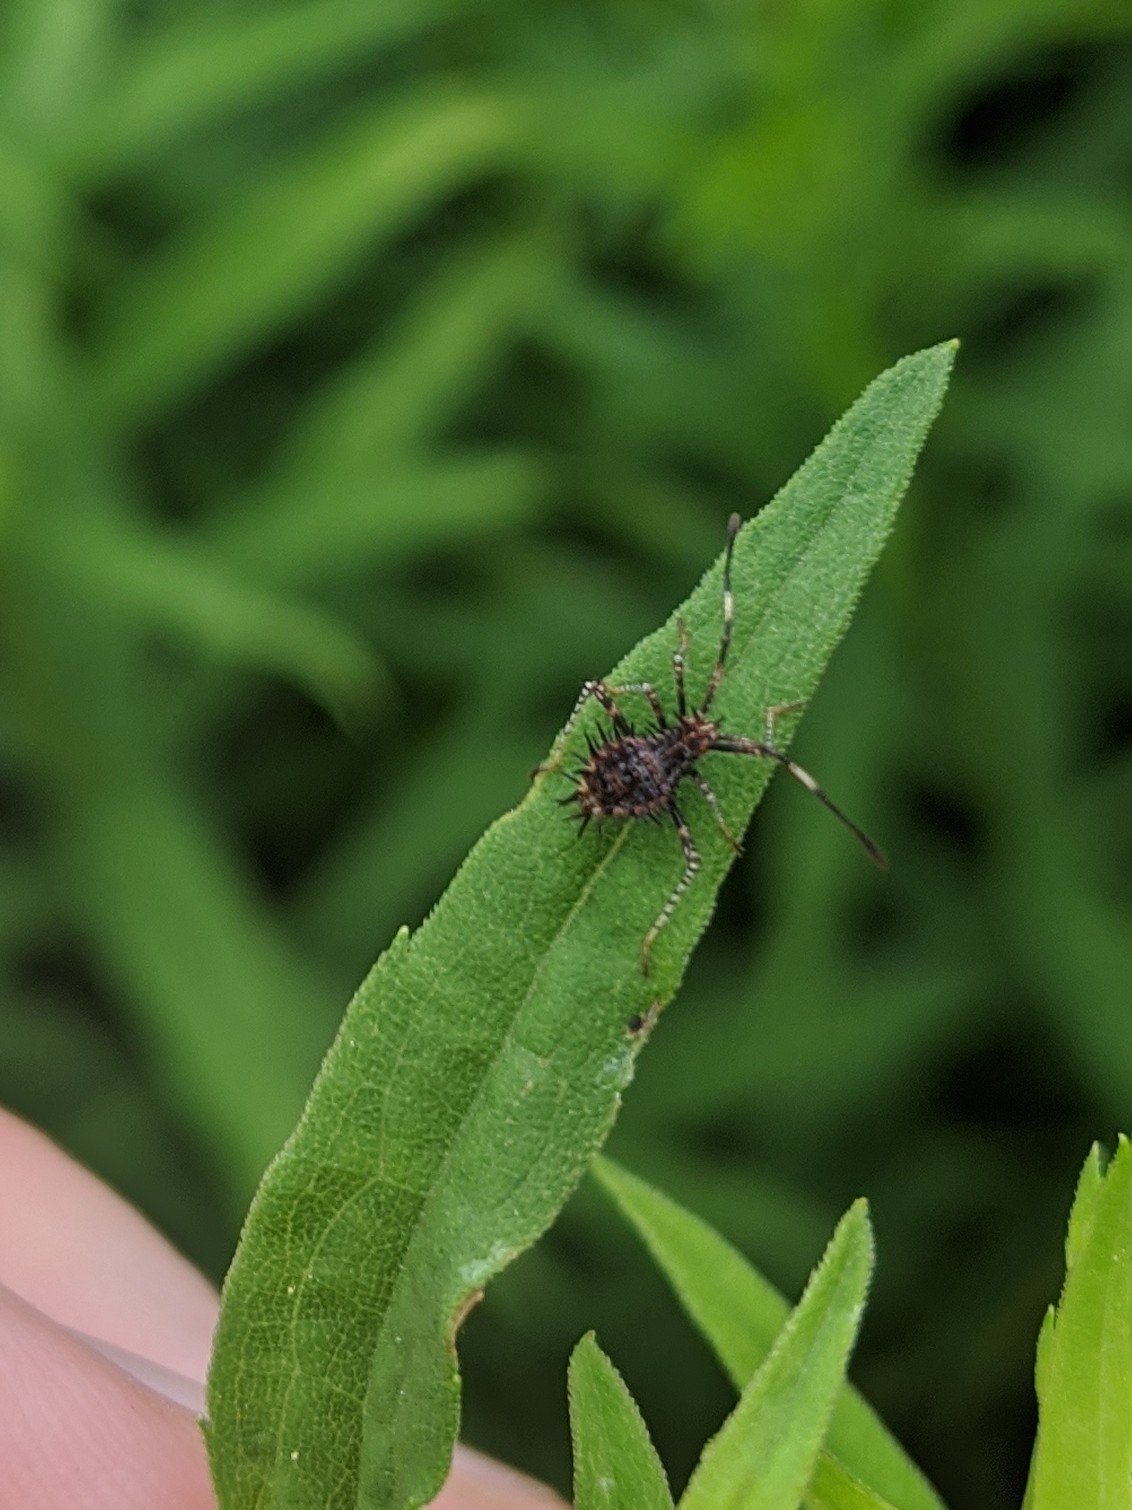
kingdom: Animalia
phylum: Arthropoda
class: Insecta
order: Hemiptera
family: Coreidae
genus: Euthochtha
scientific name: Euthochtha galeator
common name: Helmeted squash bug
